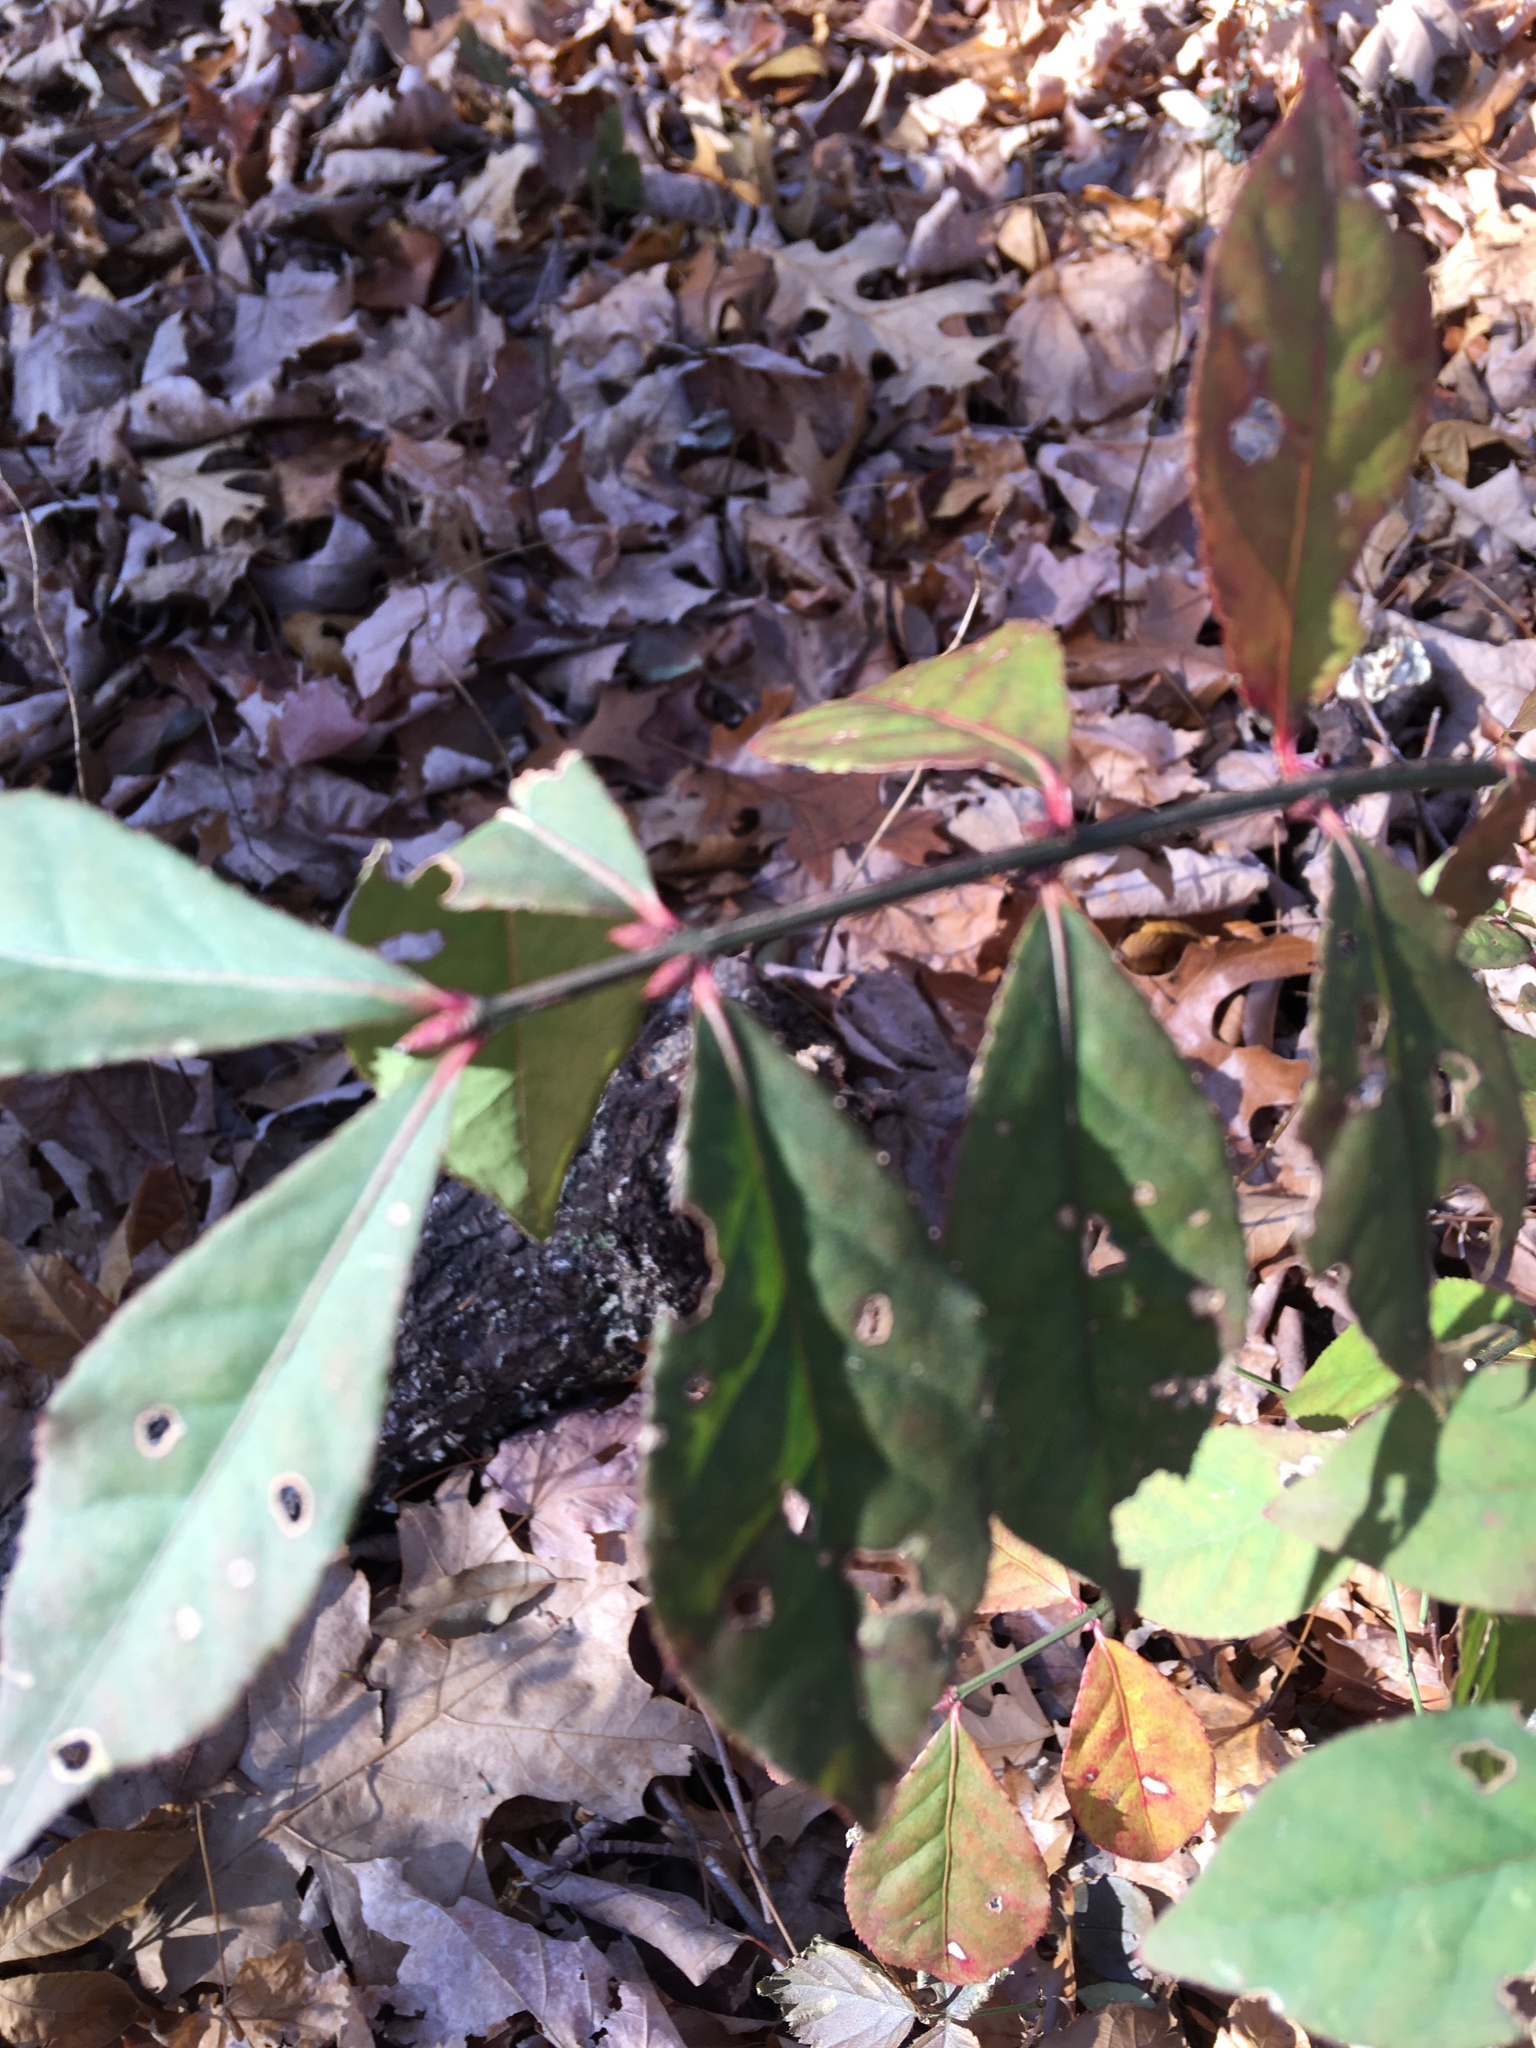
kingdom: Plantae
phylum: Tracheophyta
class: Magnoliopsida
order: Celastrales
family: Celastraceae
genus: Euonymus
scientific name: Euonymus alatus
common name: Winged euonymus
